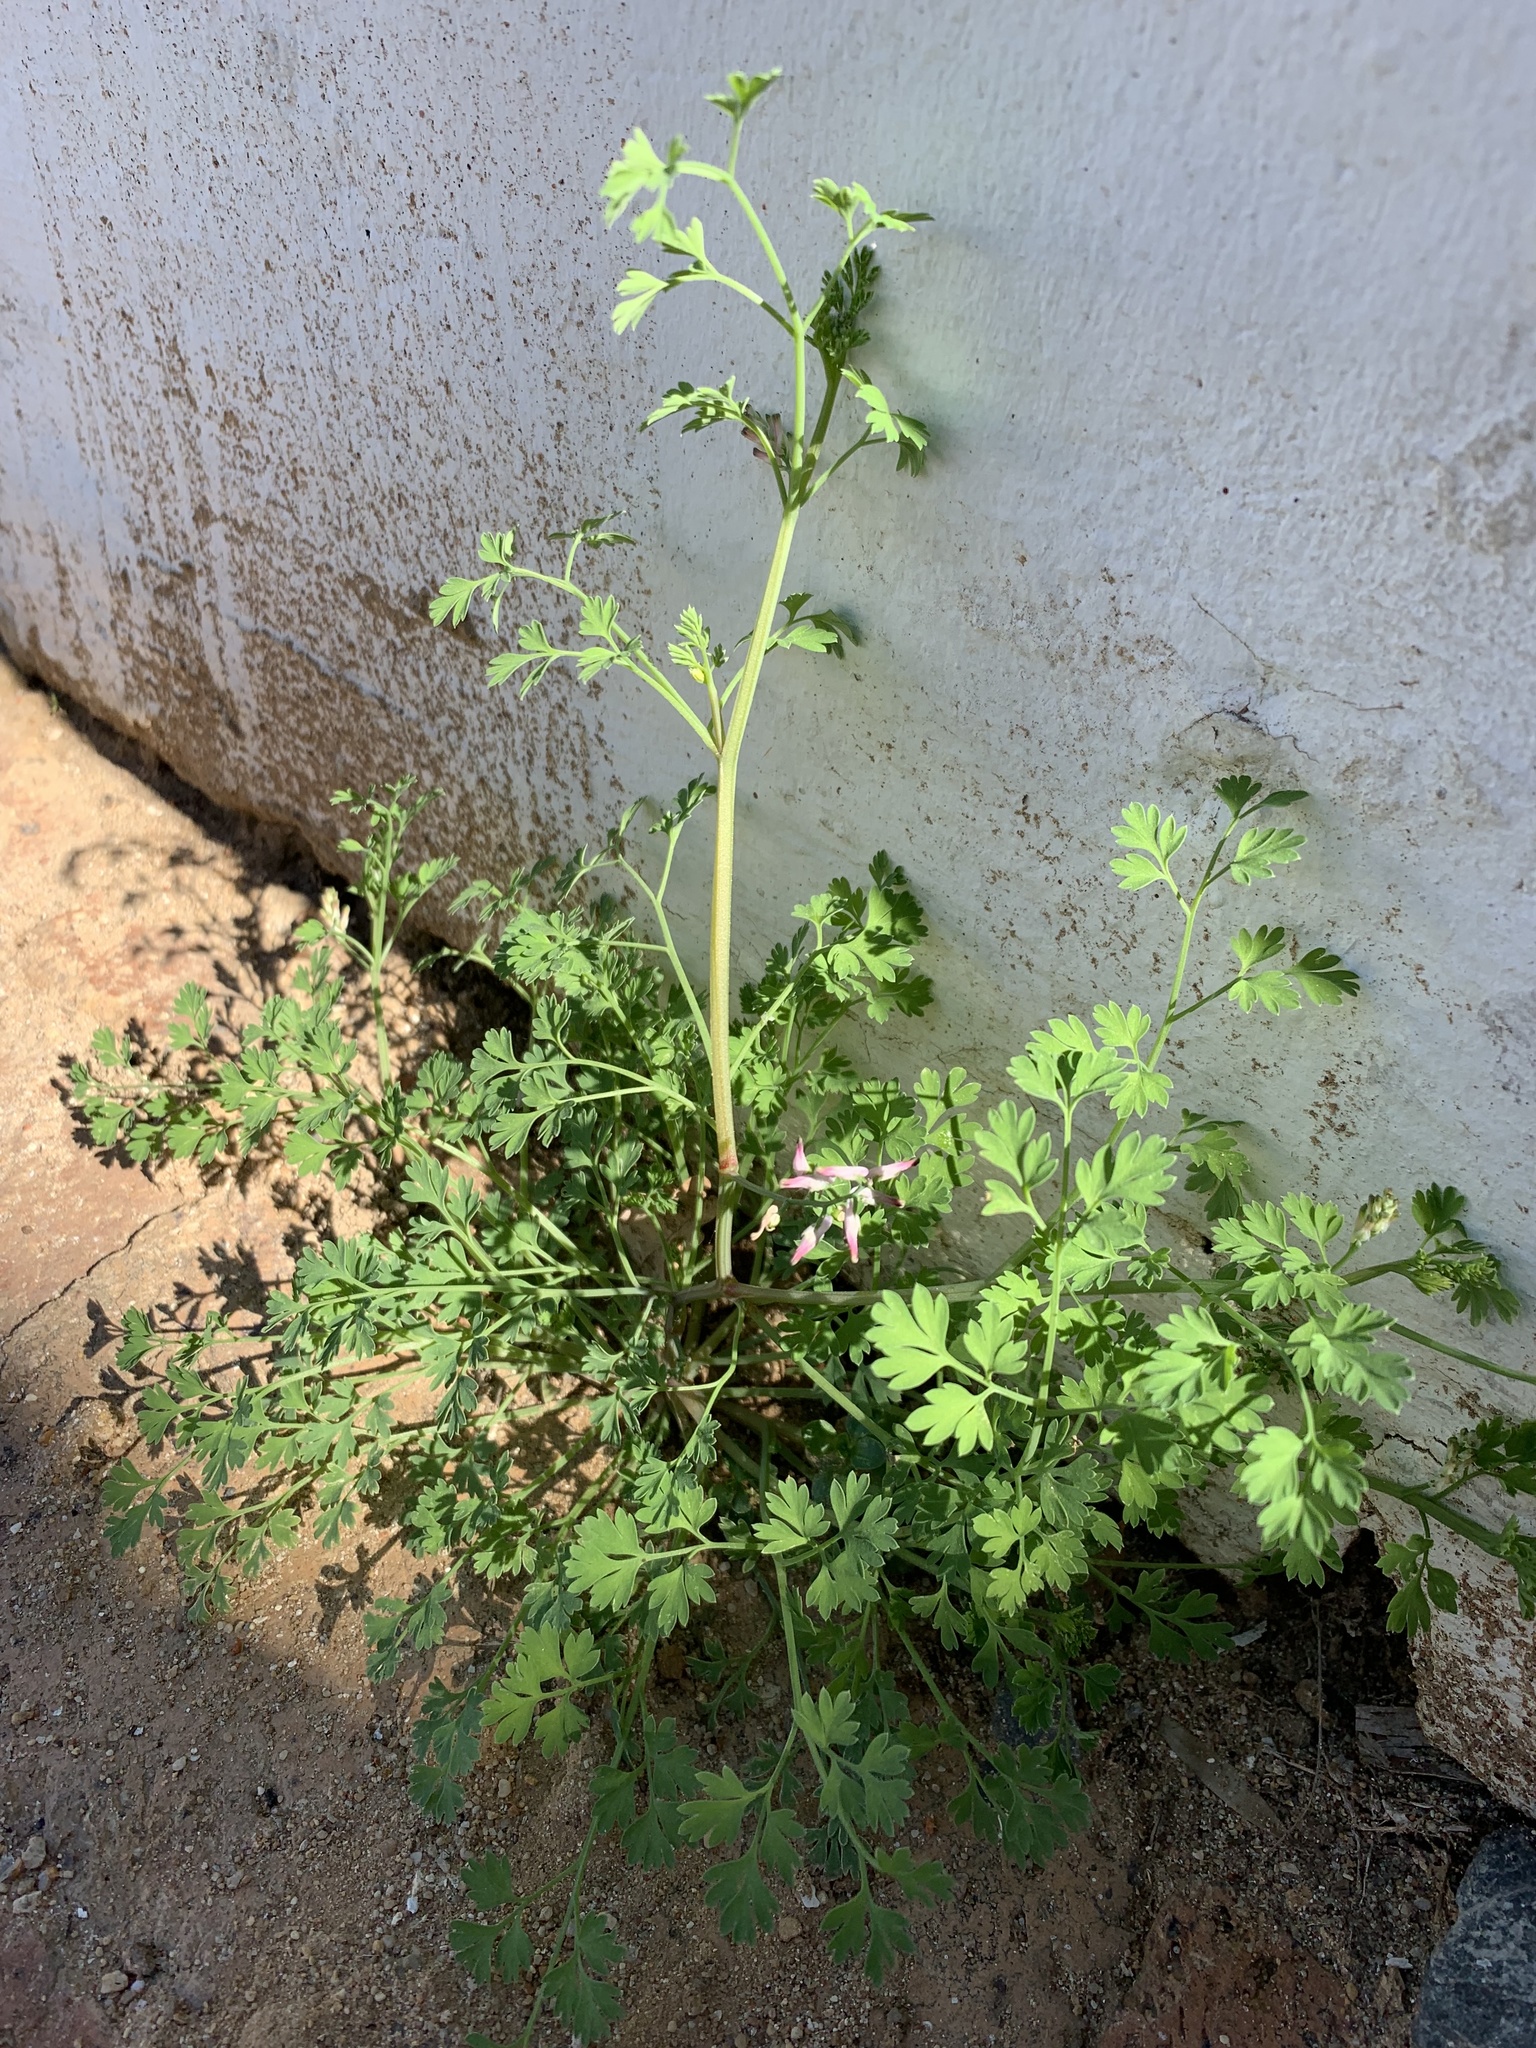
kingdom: Plantae
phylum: Tracheophyta
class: Magnoliopsida
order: Ranunculales
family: Papaveraceae
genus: Fumaria
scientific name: Fumaria muralis
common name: Common ramping-fumitory
